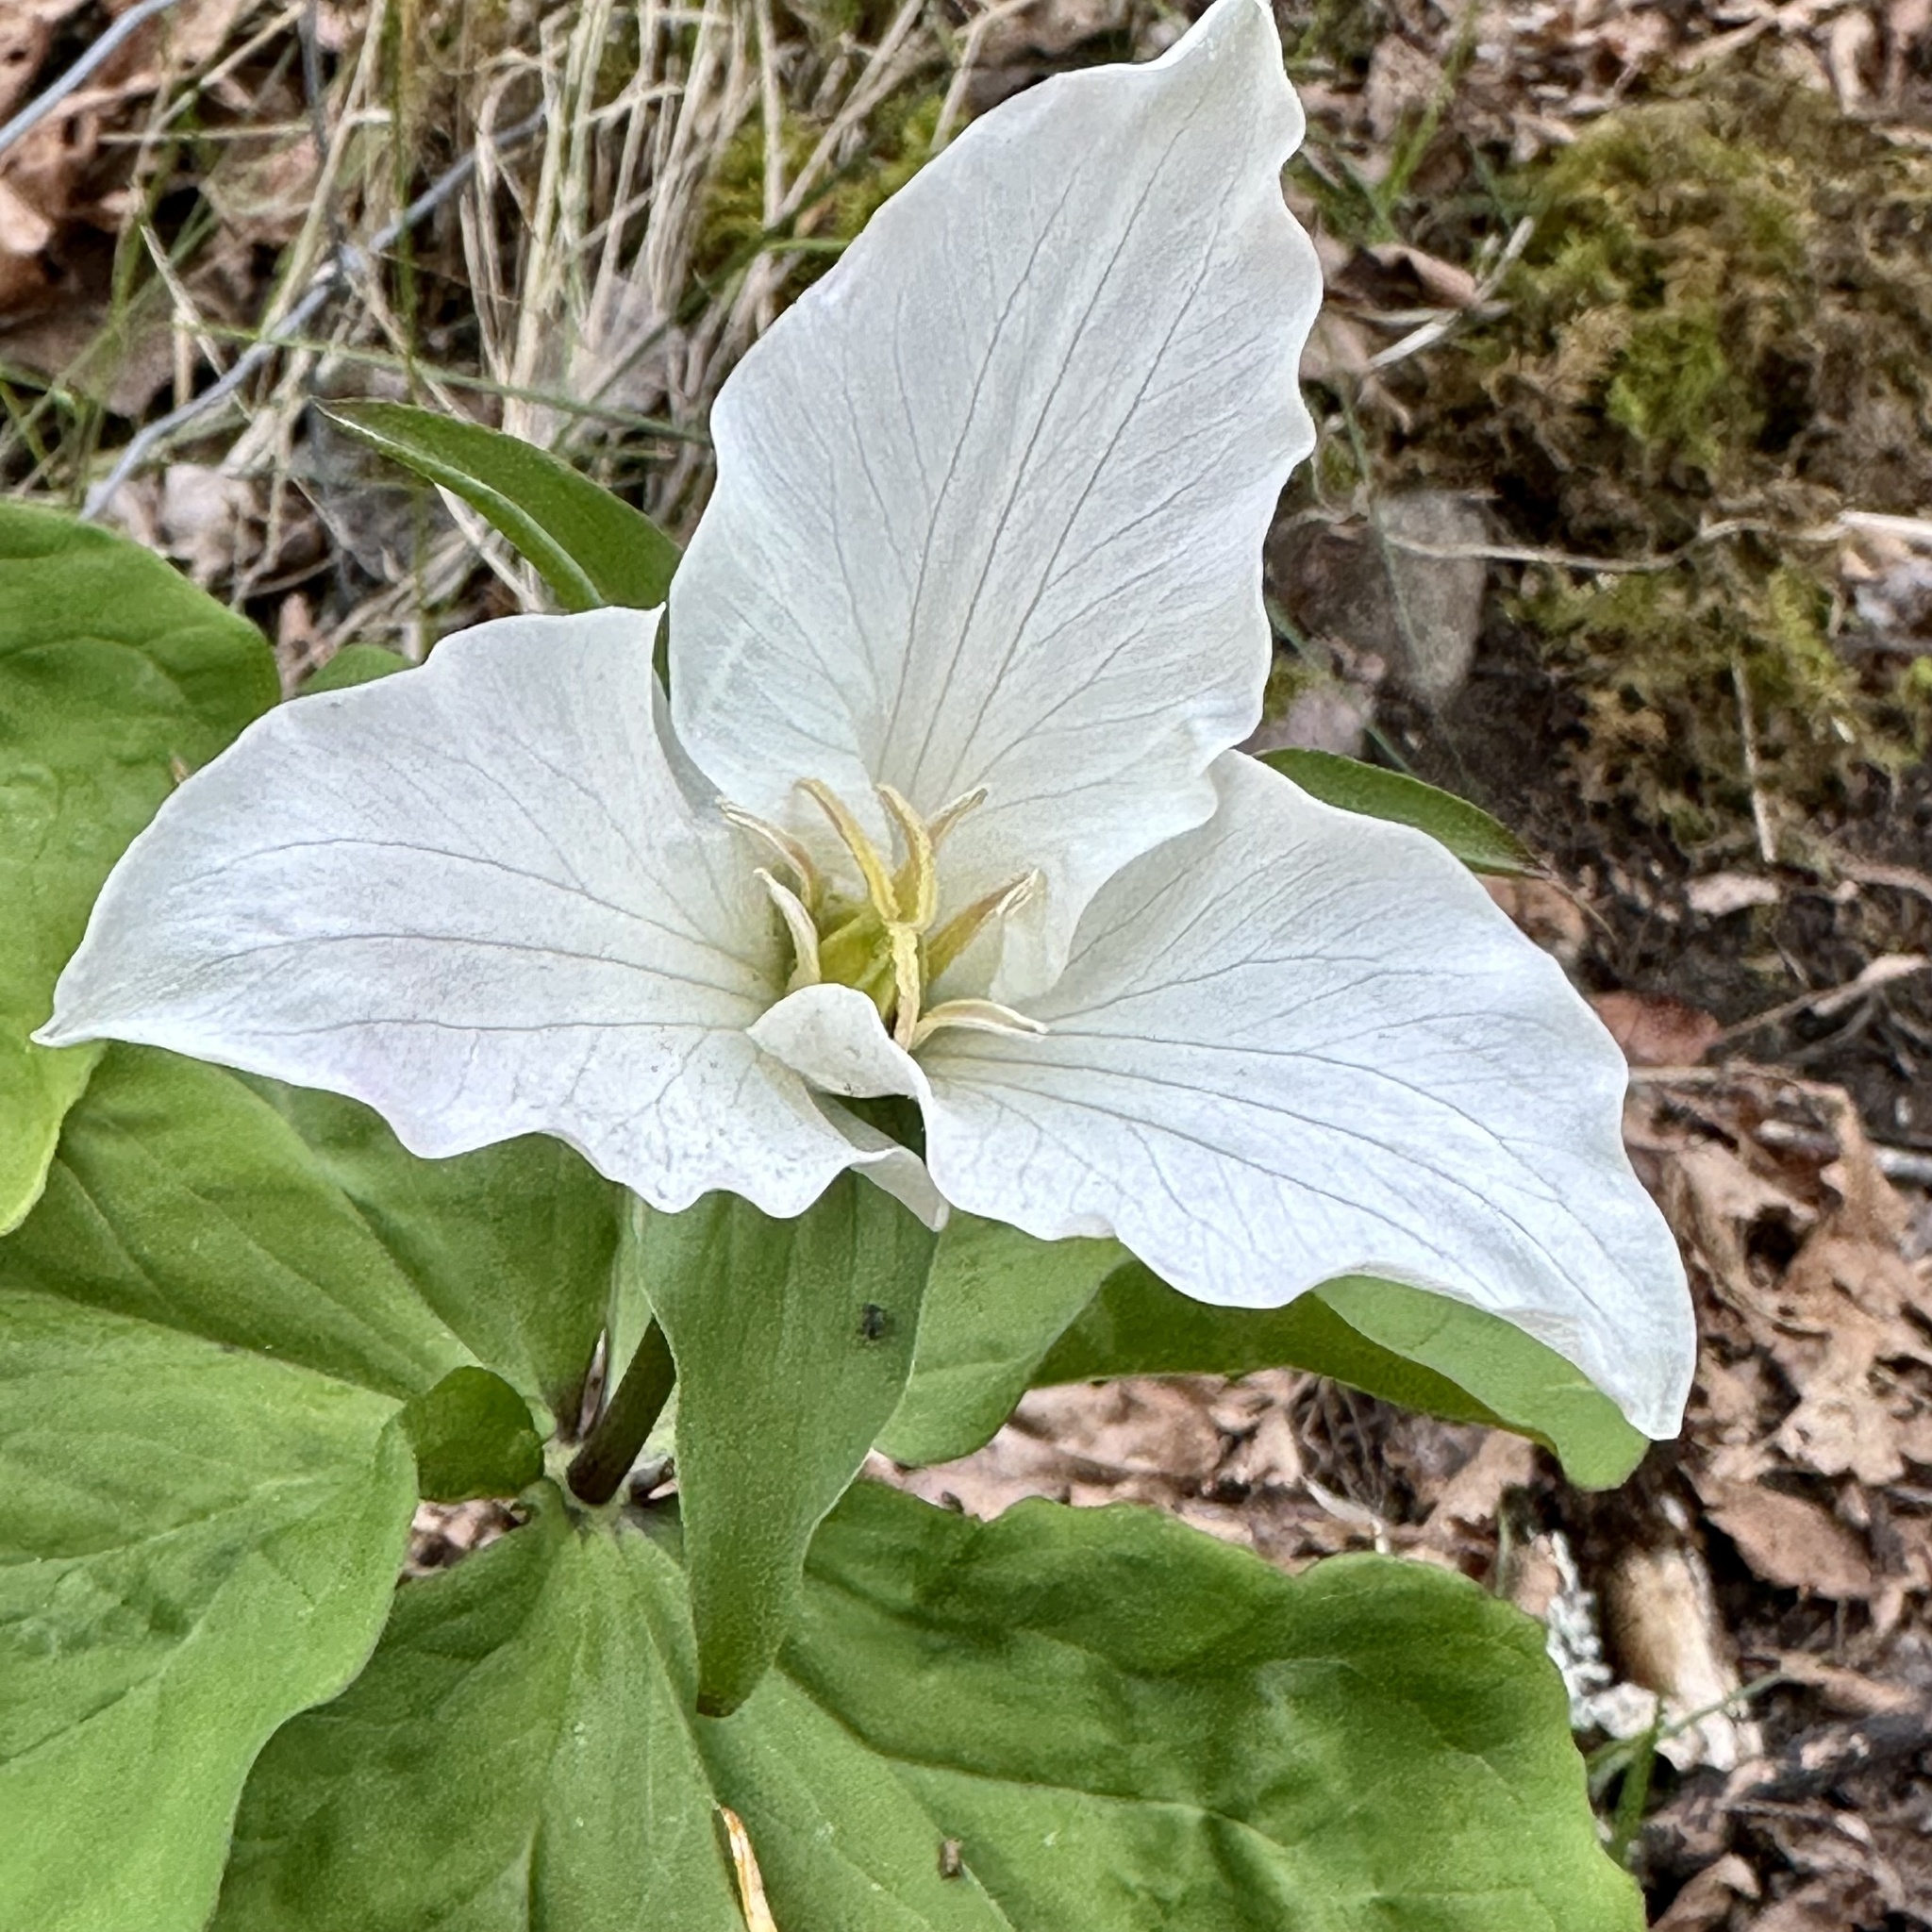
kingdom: Plantae
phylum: Tracheophyta
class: Liliopsida
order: Liliales
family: Melanthiaceae
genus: Trillium
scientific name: Trillium ovatum
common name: Pacific trillium
